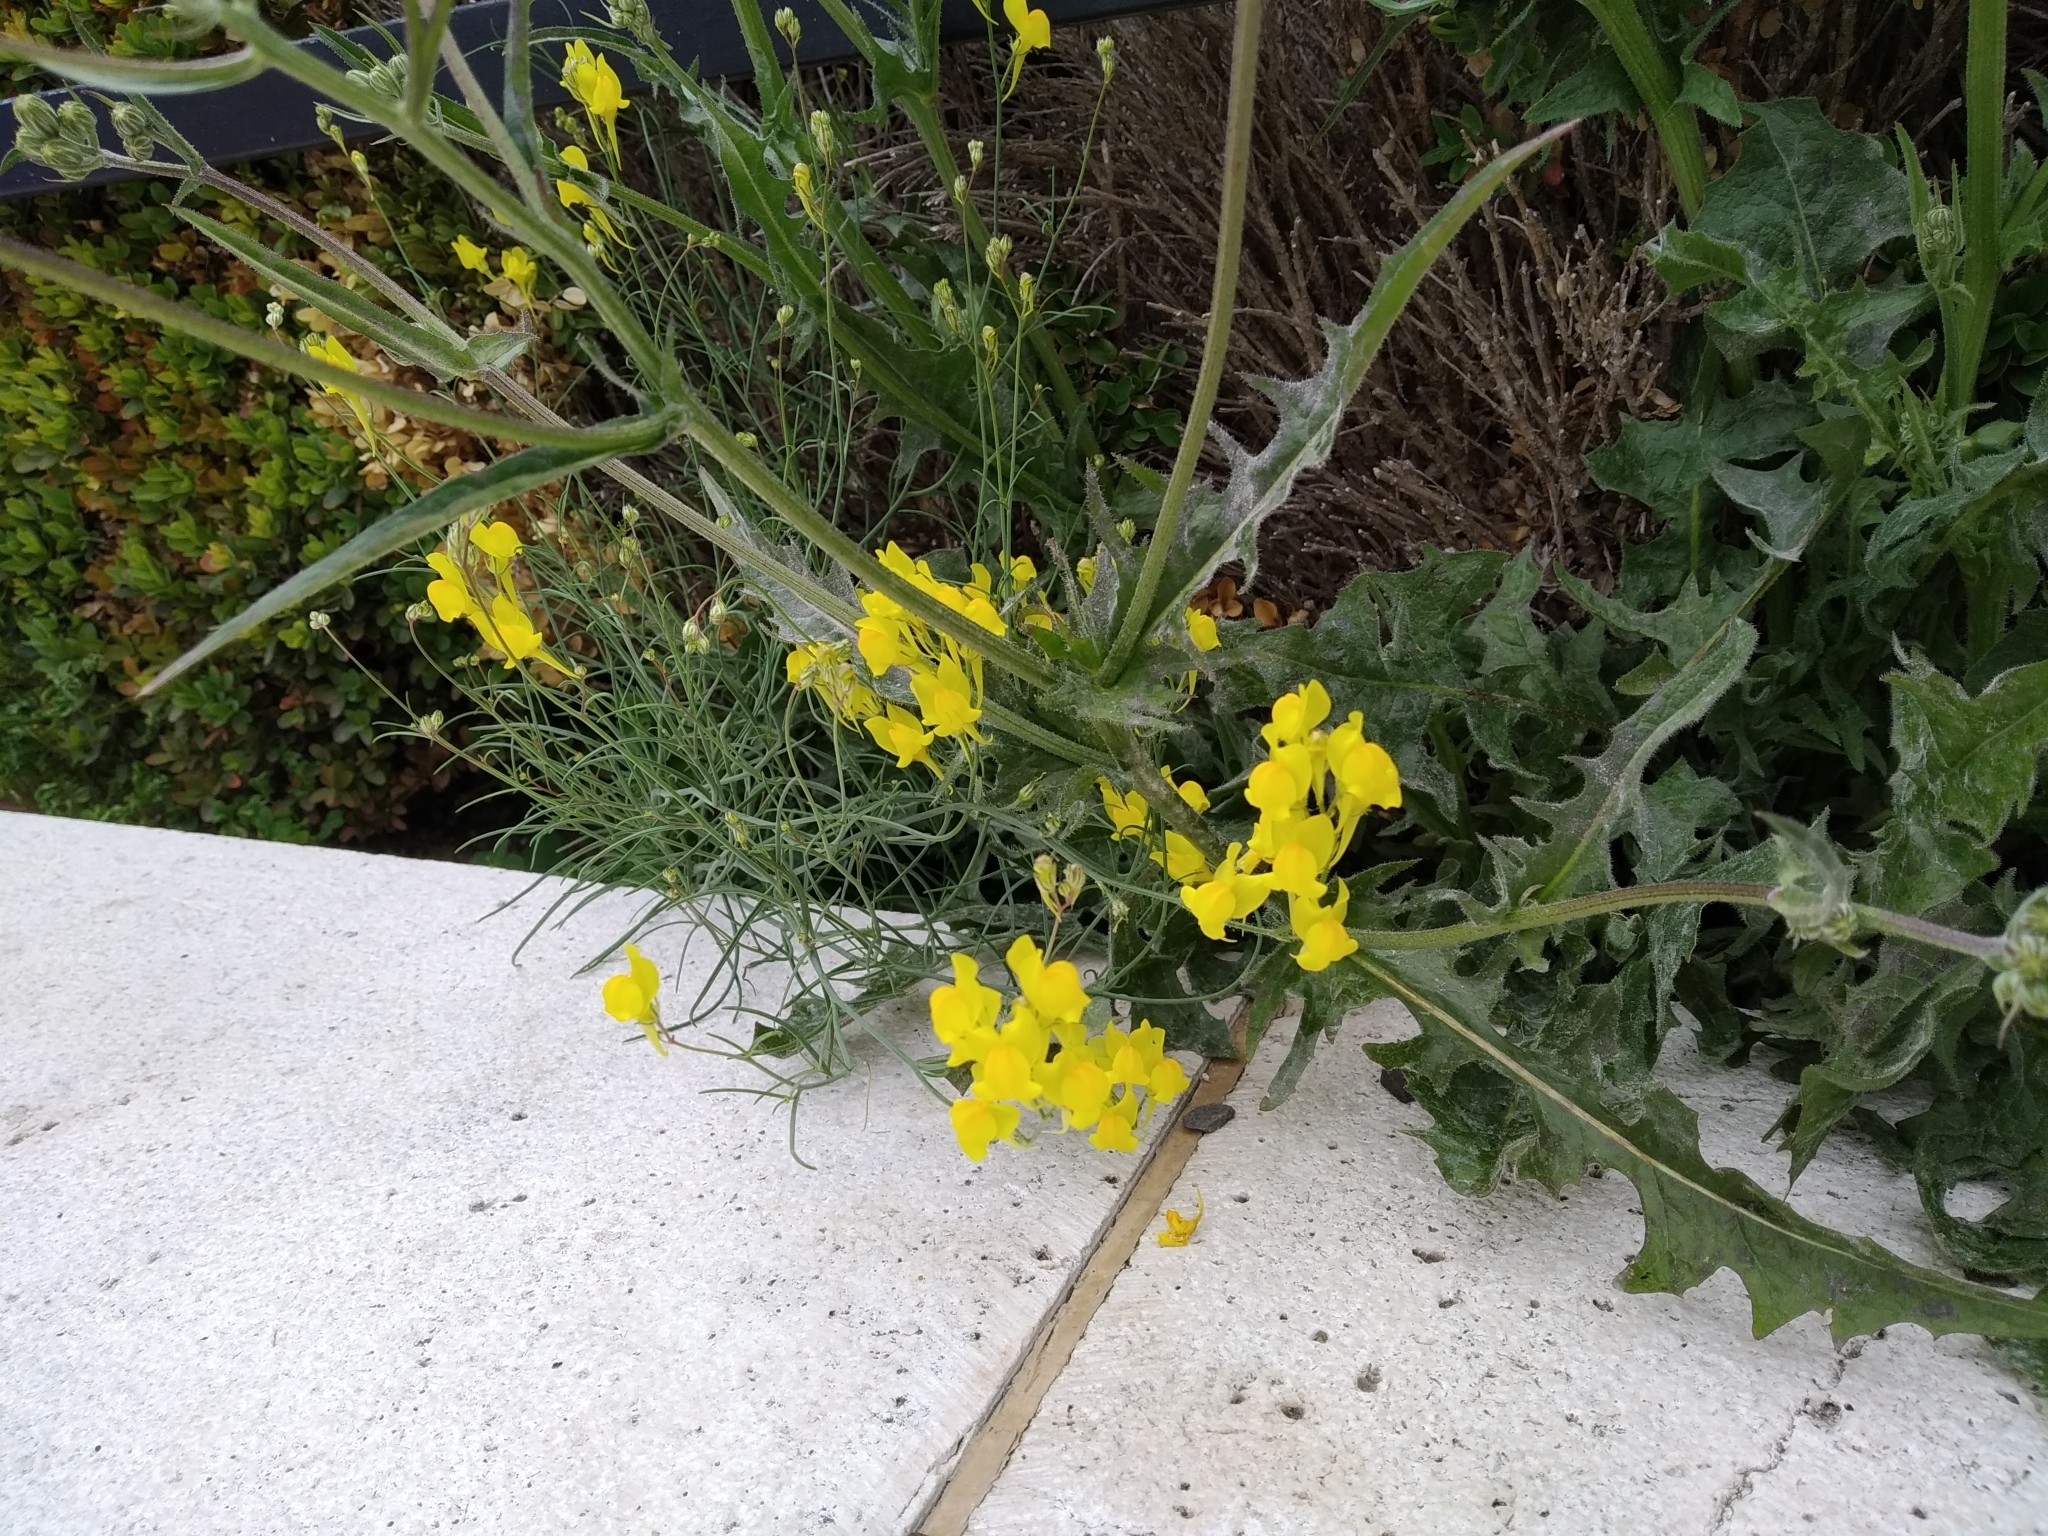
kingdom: Plantae
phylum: Tracheophyta
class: Magnoliopsida
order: Lamiales
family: Plantaginaceae
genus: Linaria
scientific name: Linaria spartea
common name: Ballast toadflax
